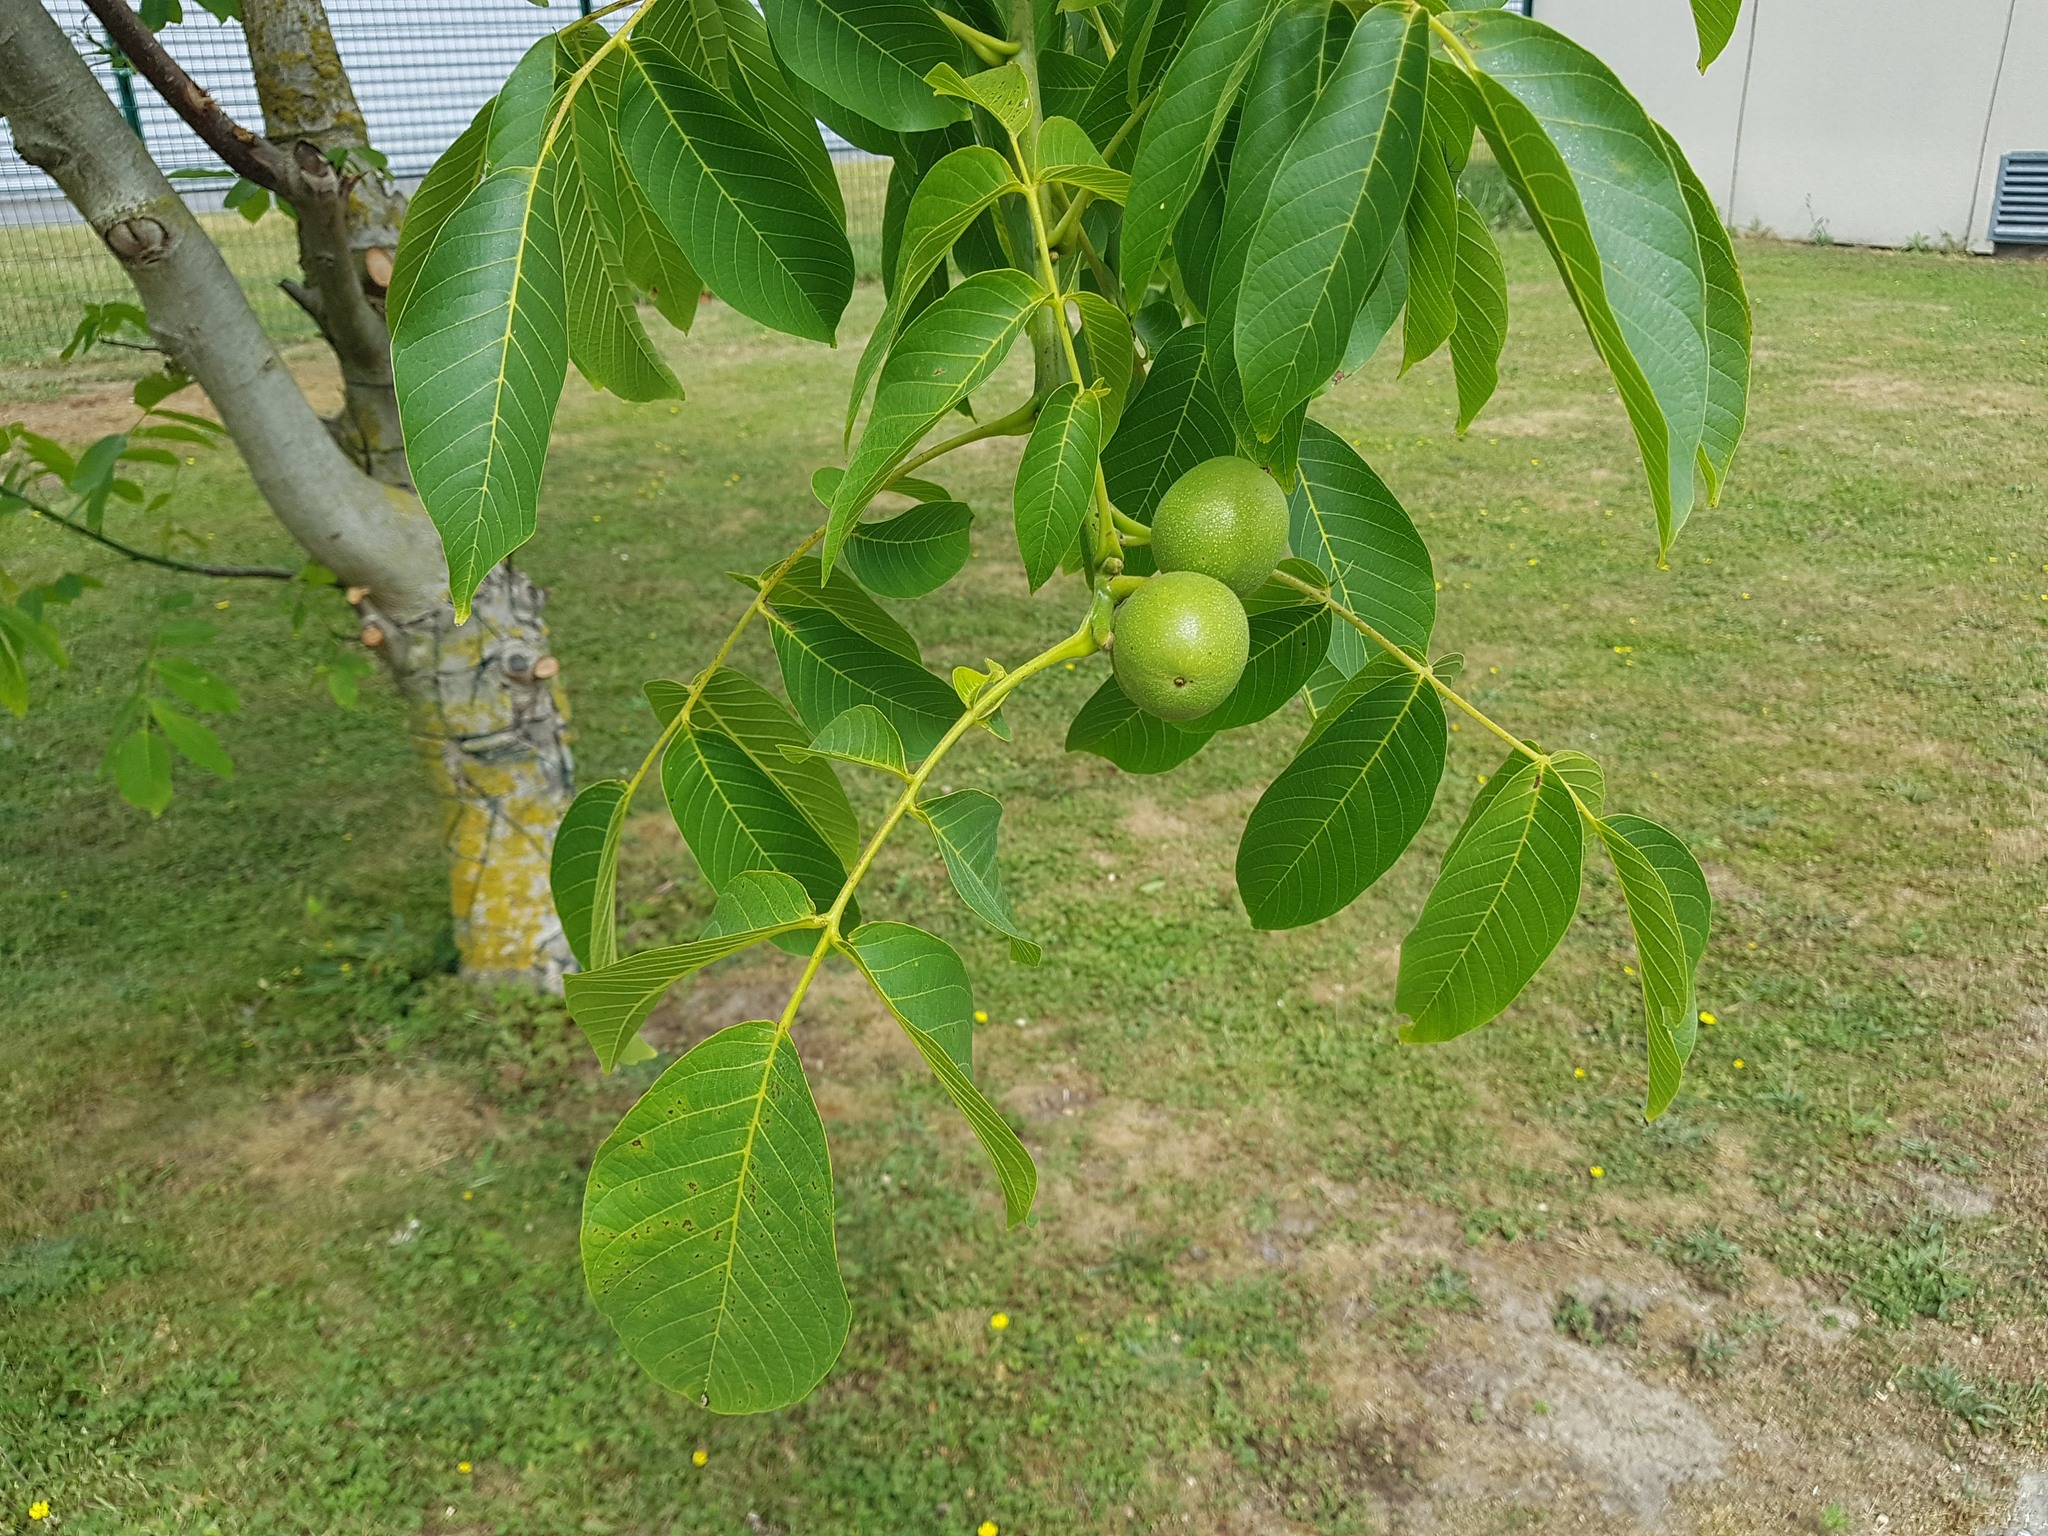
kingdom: Plantae
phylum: Tracheophyta
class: Magnoliopsida
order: Fagales
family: Juglandaceae
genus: Juglans
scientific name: Juglans regia
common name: Walnut
